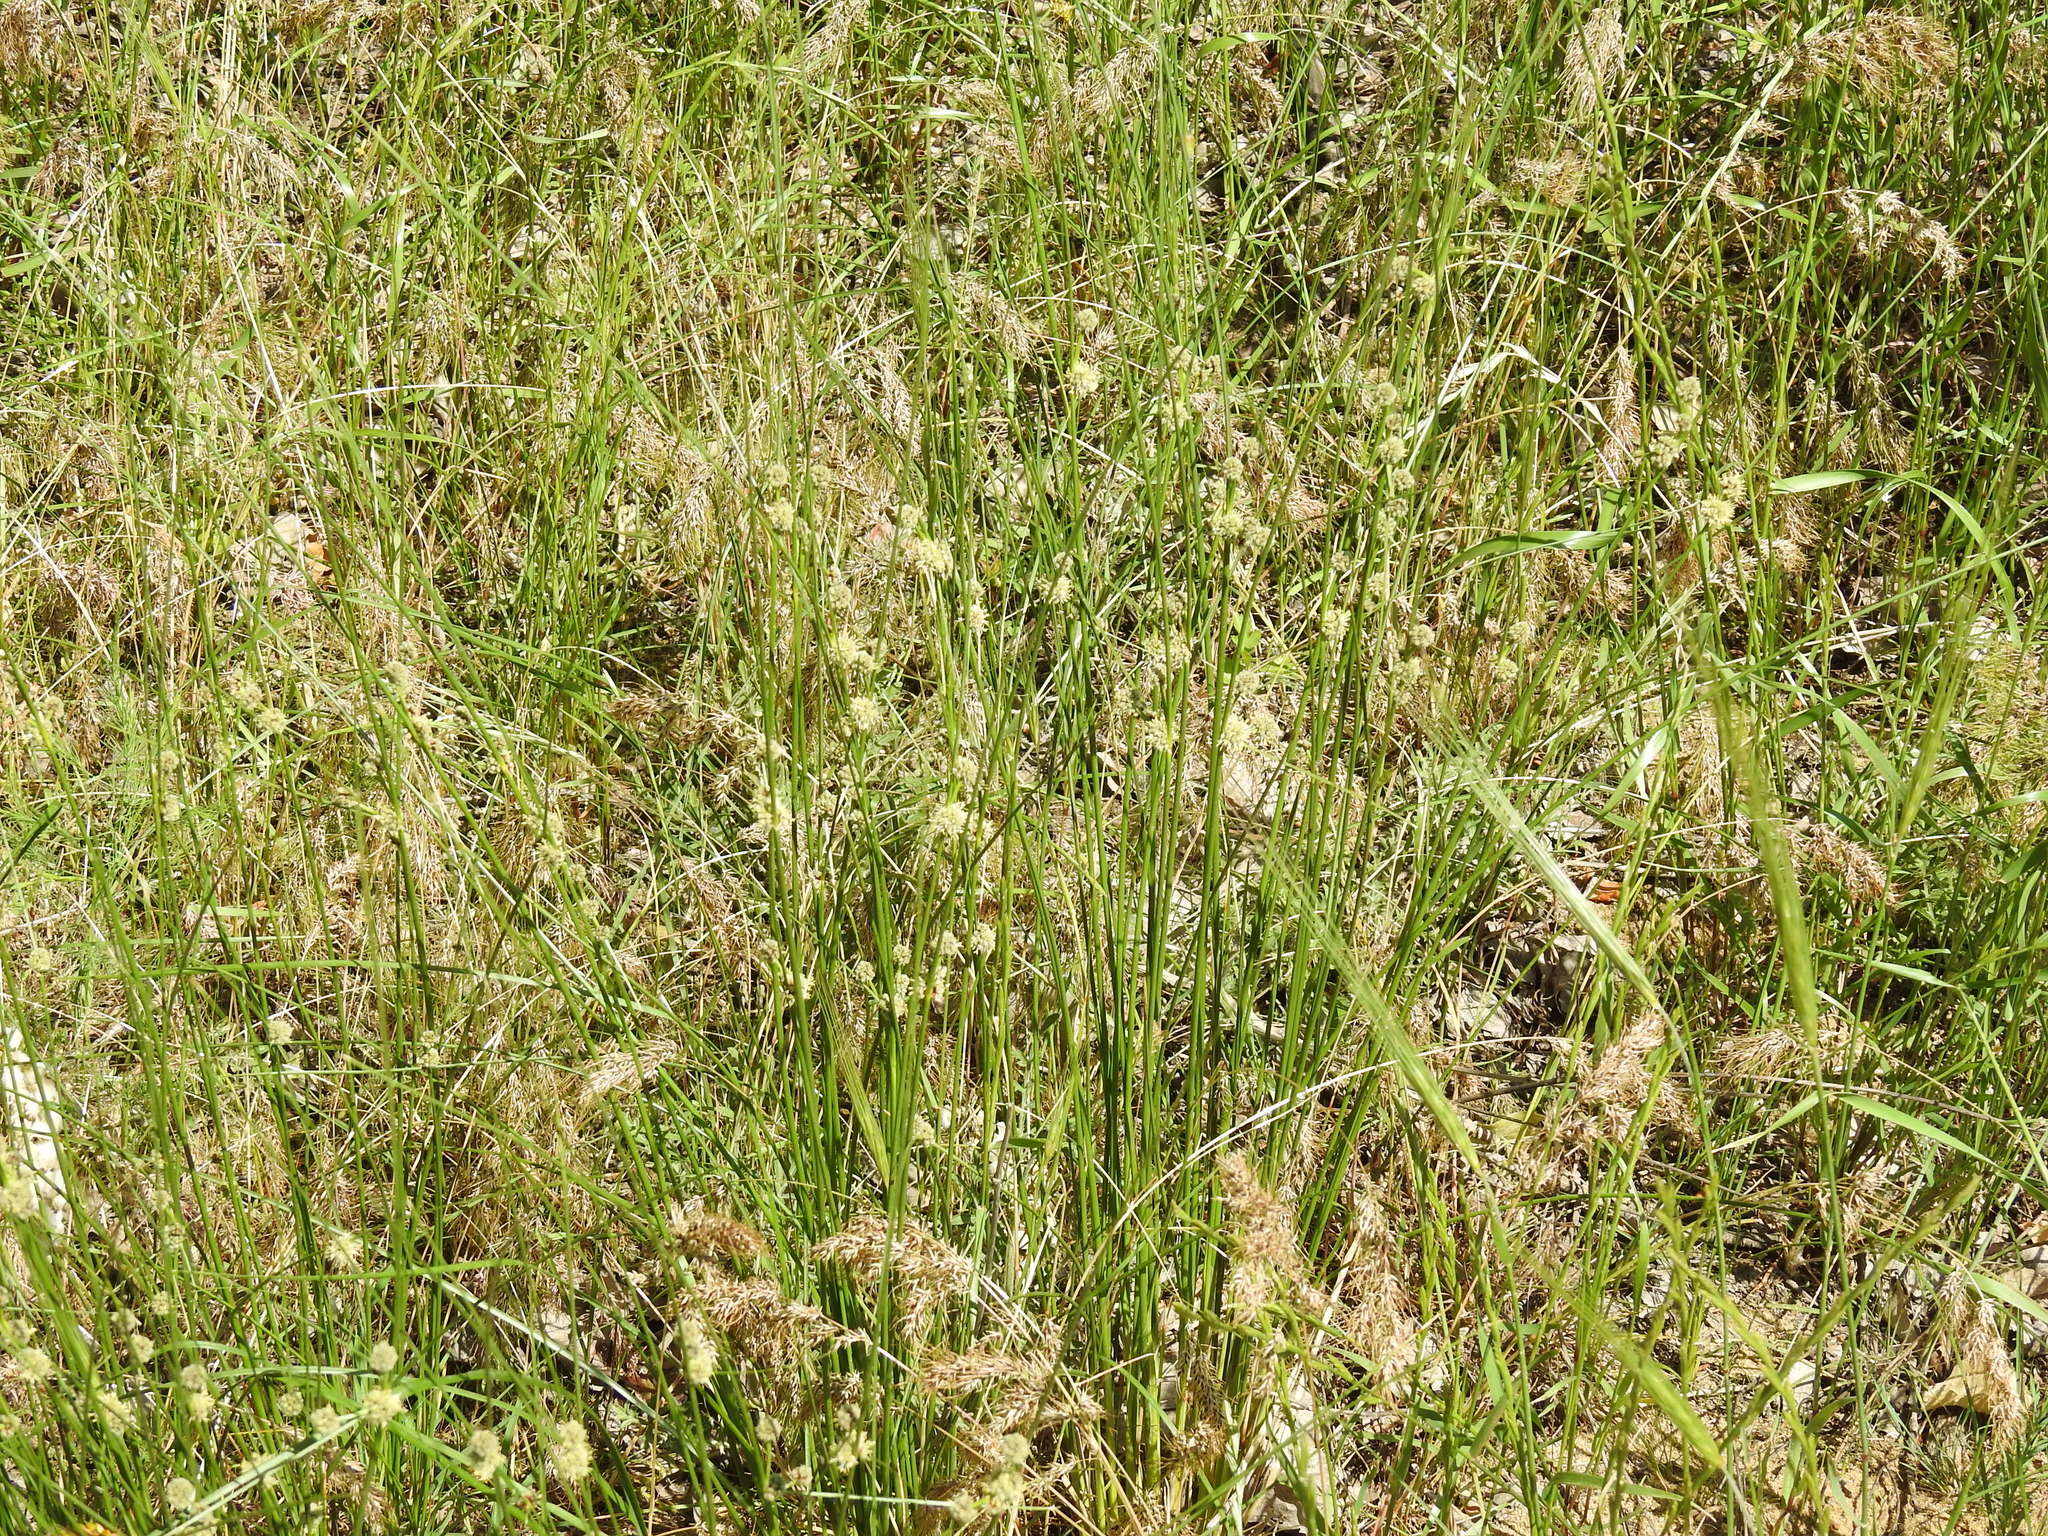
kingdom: Plantae
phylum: Tracheophyta
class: Liliopsida
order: Poales
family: Cyperaceae
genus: Scirpoides
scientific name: Scirpoides holoschoenus
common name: Round-headed club-rush
